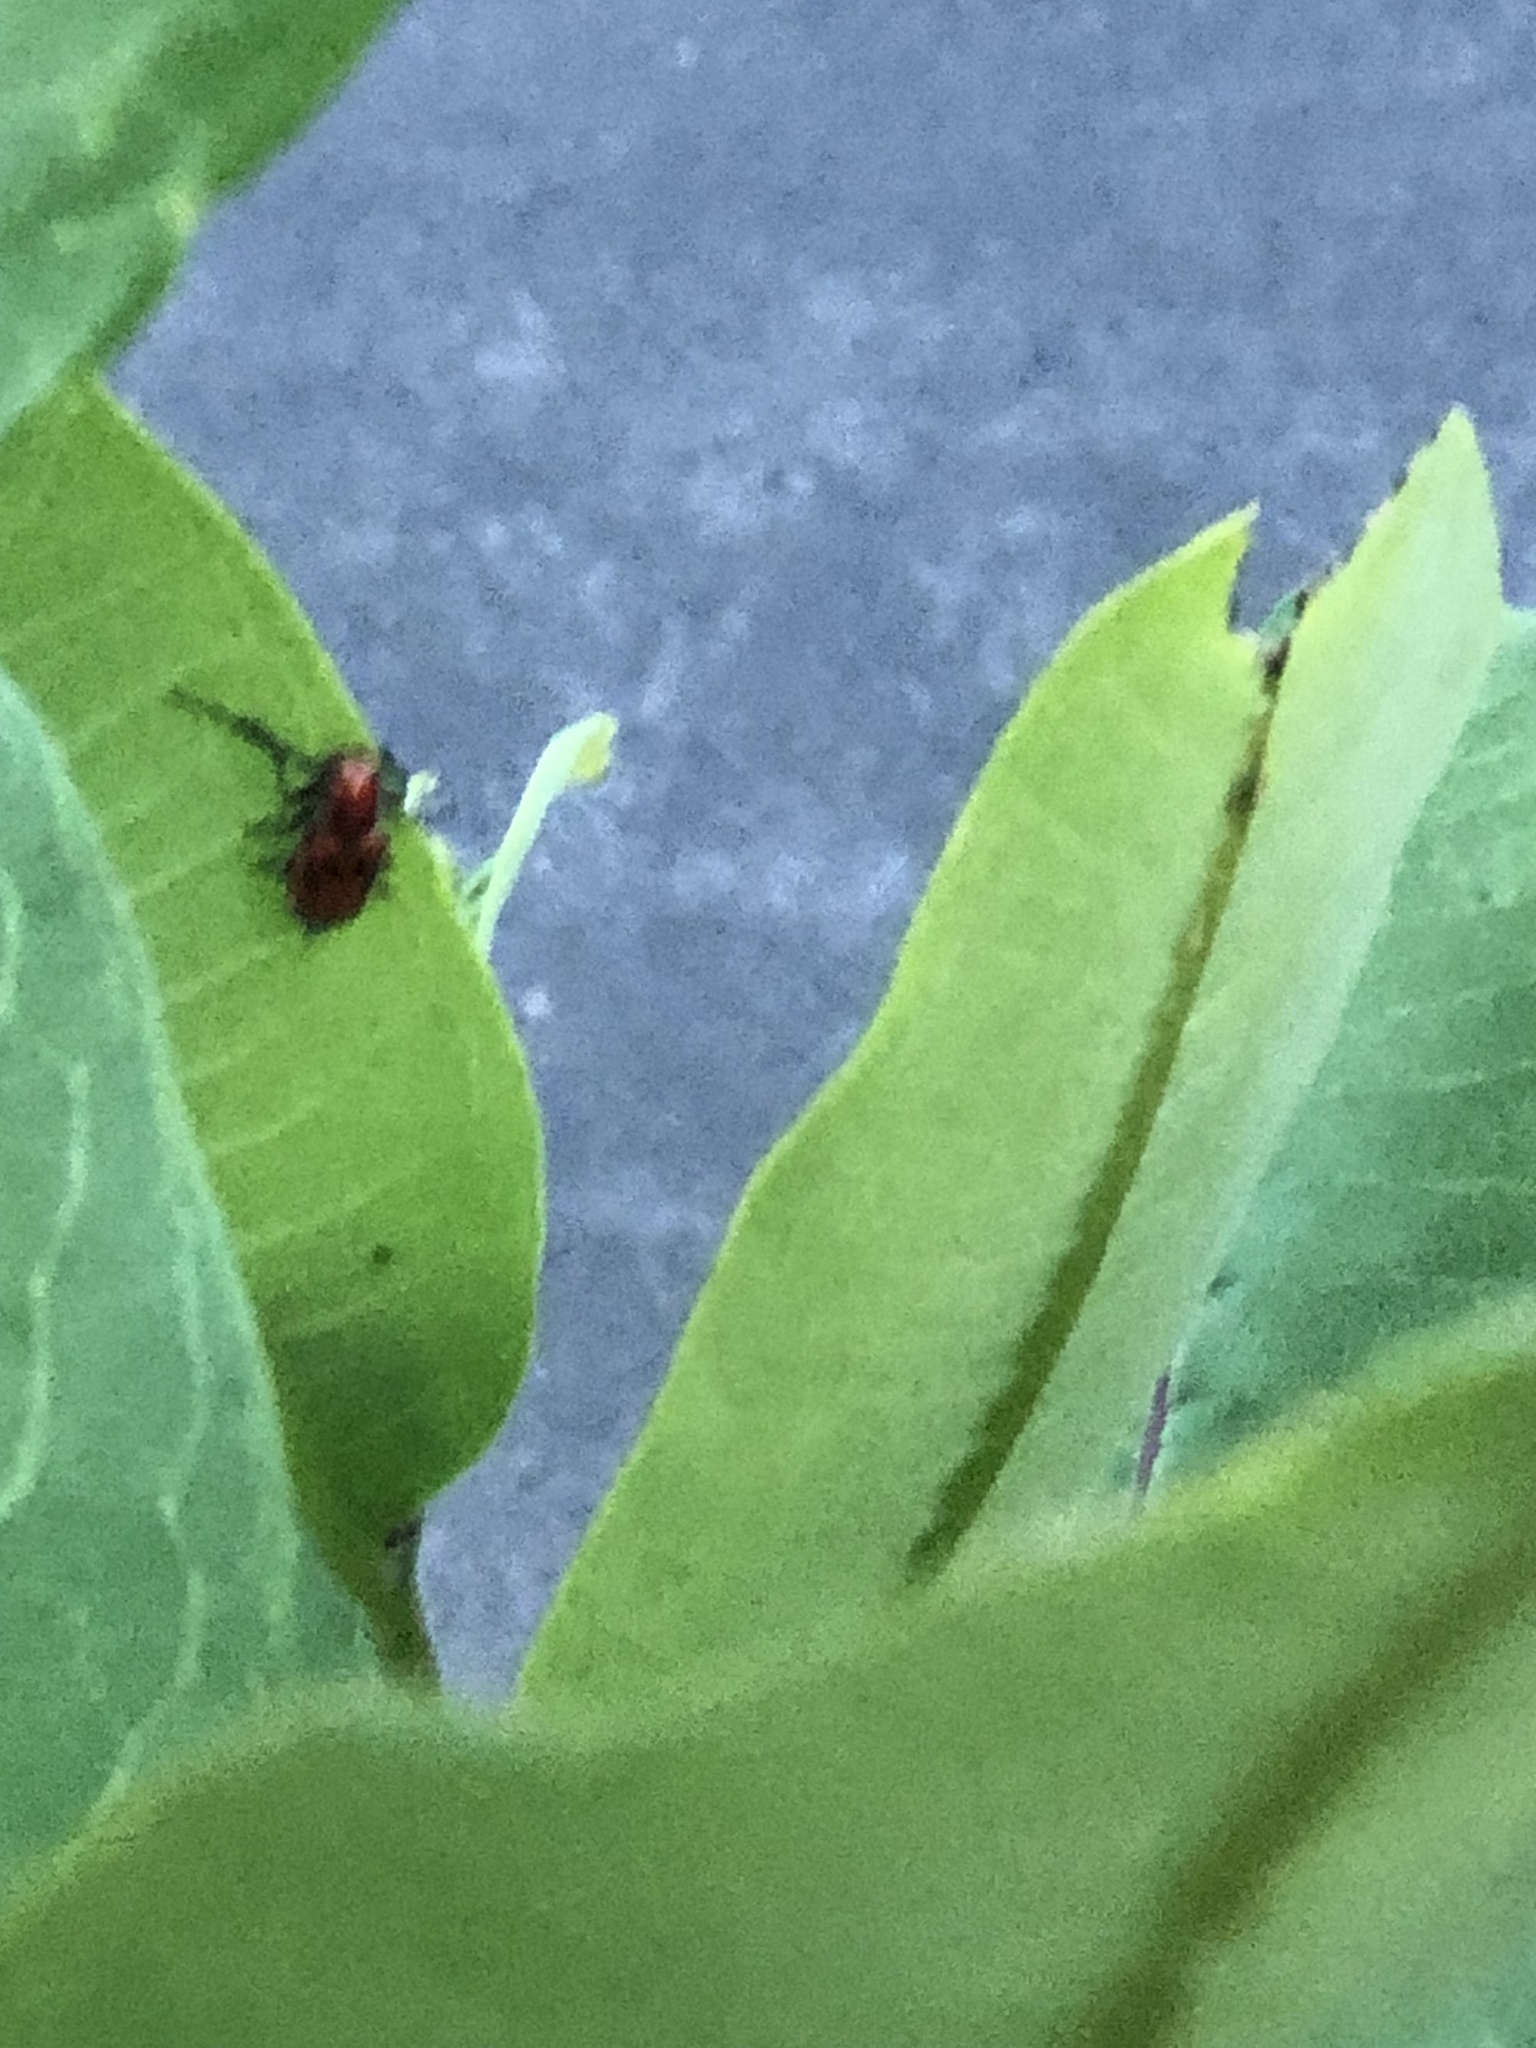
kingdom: Animalia
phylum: Arthropoda
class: Insecta
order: Coleoptera
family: Cerambycidae
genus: Tetraopes
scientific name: Tetraopes tetrophthalmus
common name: Red milkweed beetle
